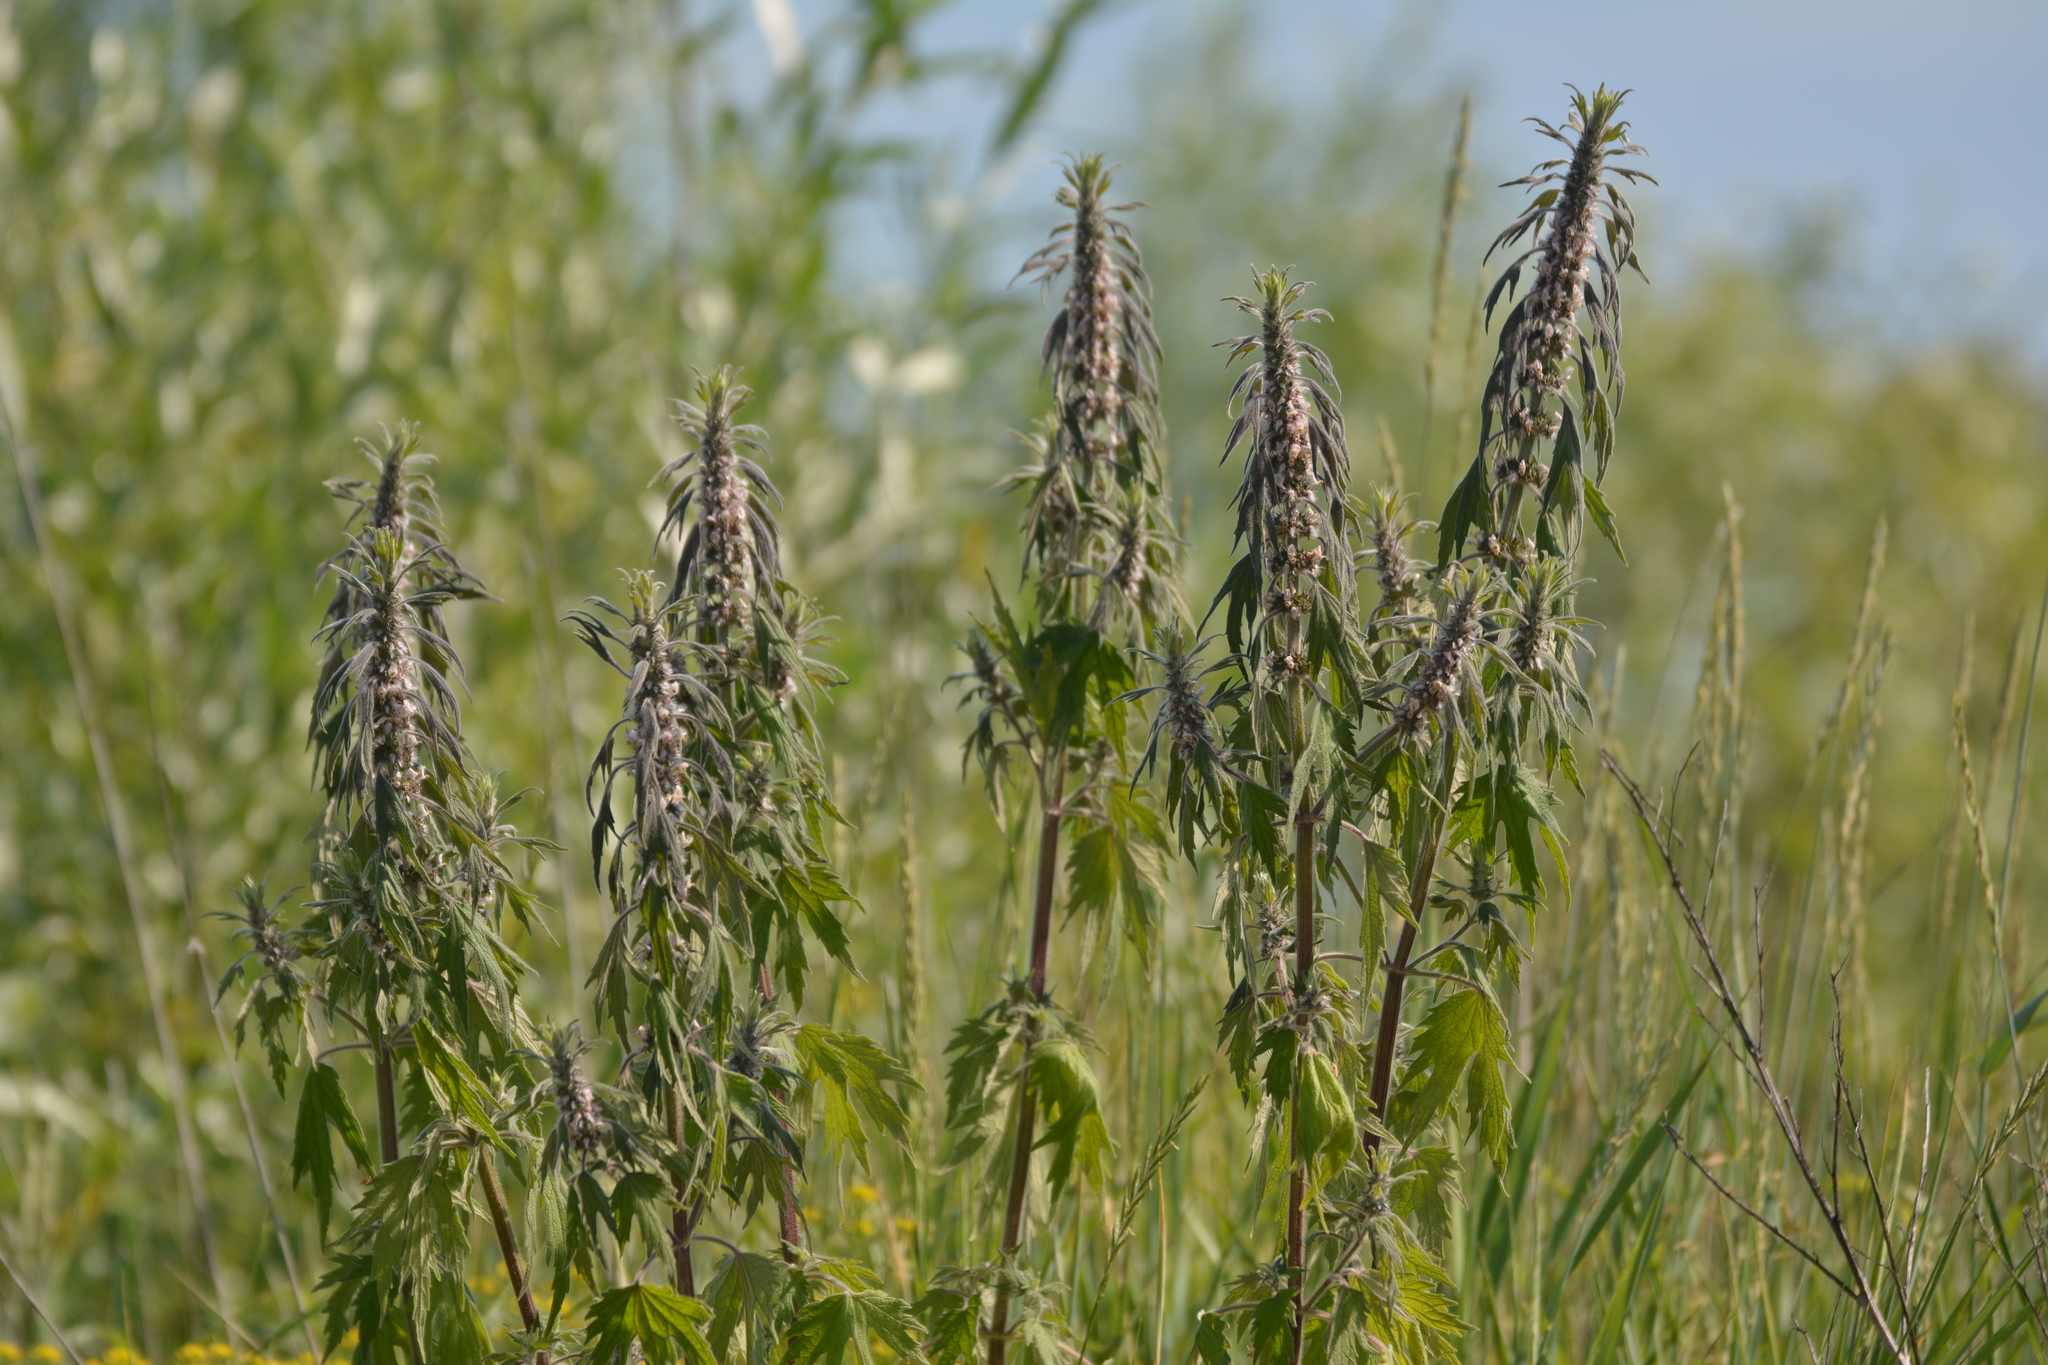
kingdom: Plantae
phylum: Tracheophyta
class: Magnoliopsida
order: Lamiales
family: Lamiaceae
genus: Leonurus
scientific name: Leonurus quinquelobatus
